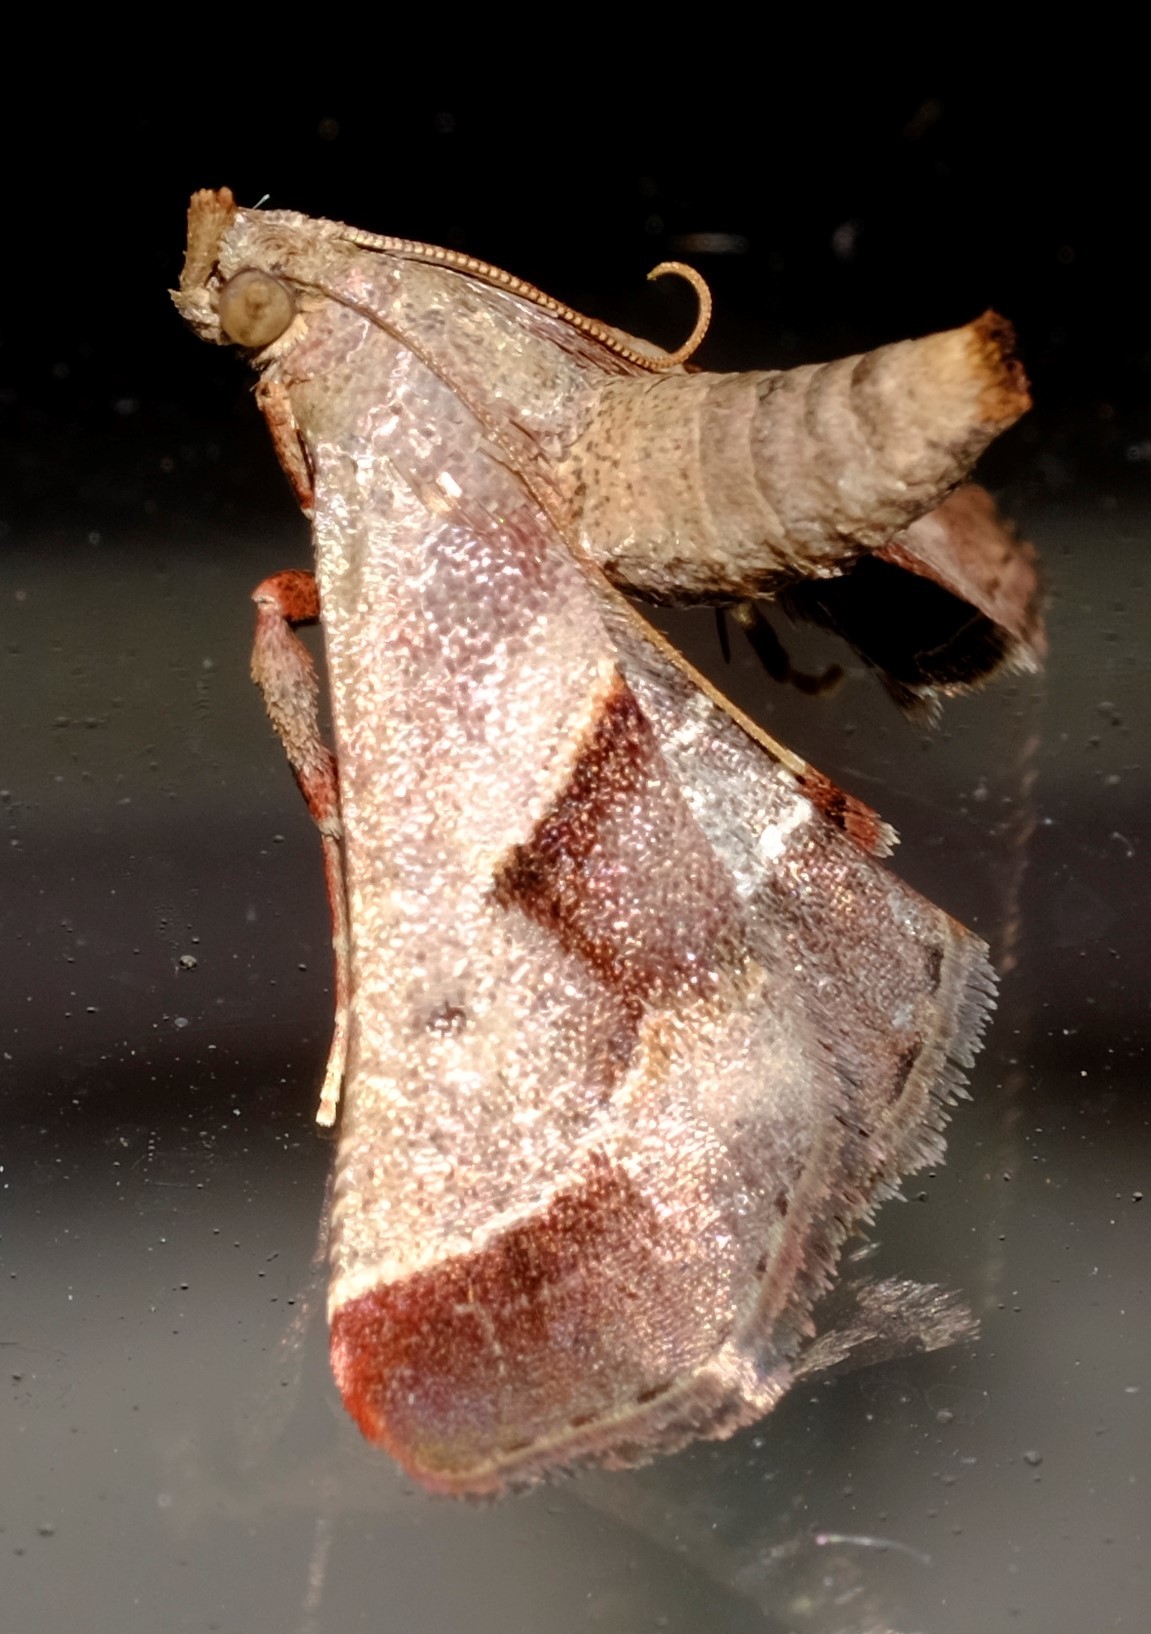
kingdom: Animalia
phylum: Arthropoda
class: Insecta
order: Lepidoptera
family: Pyralidae
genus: Gauna
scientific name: Gauna aegusalis
